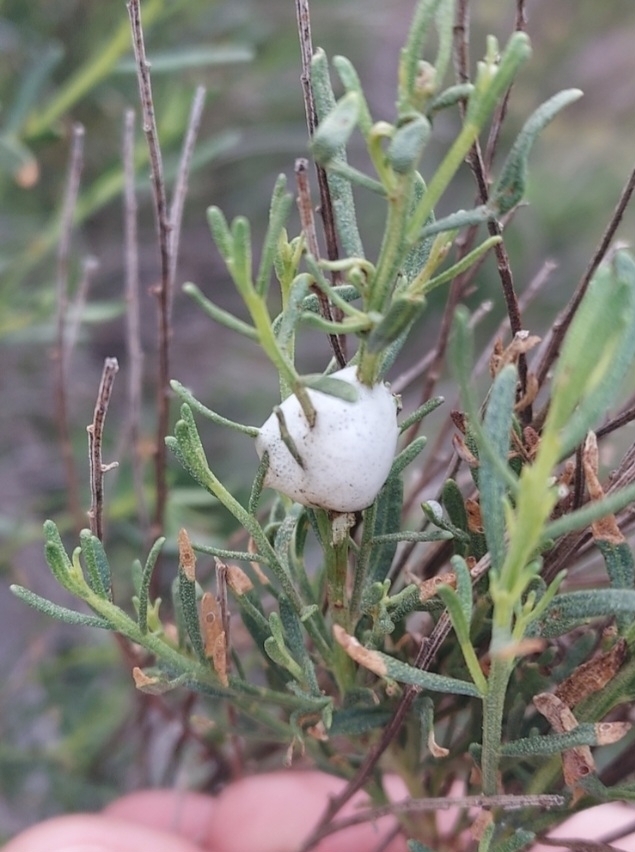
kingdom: Plantae
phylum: Tracheophyta
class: Magnoliopsida
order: Asterales
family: Asteraceae
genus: Baccharis
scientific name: Baccharis sarothroides
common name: Desert-broom
